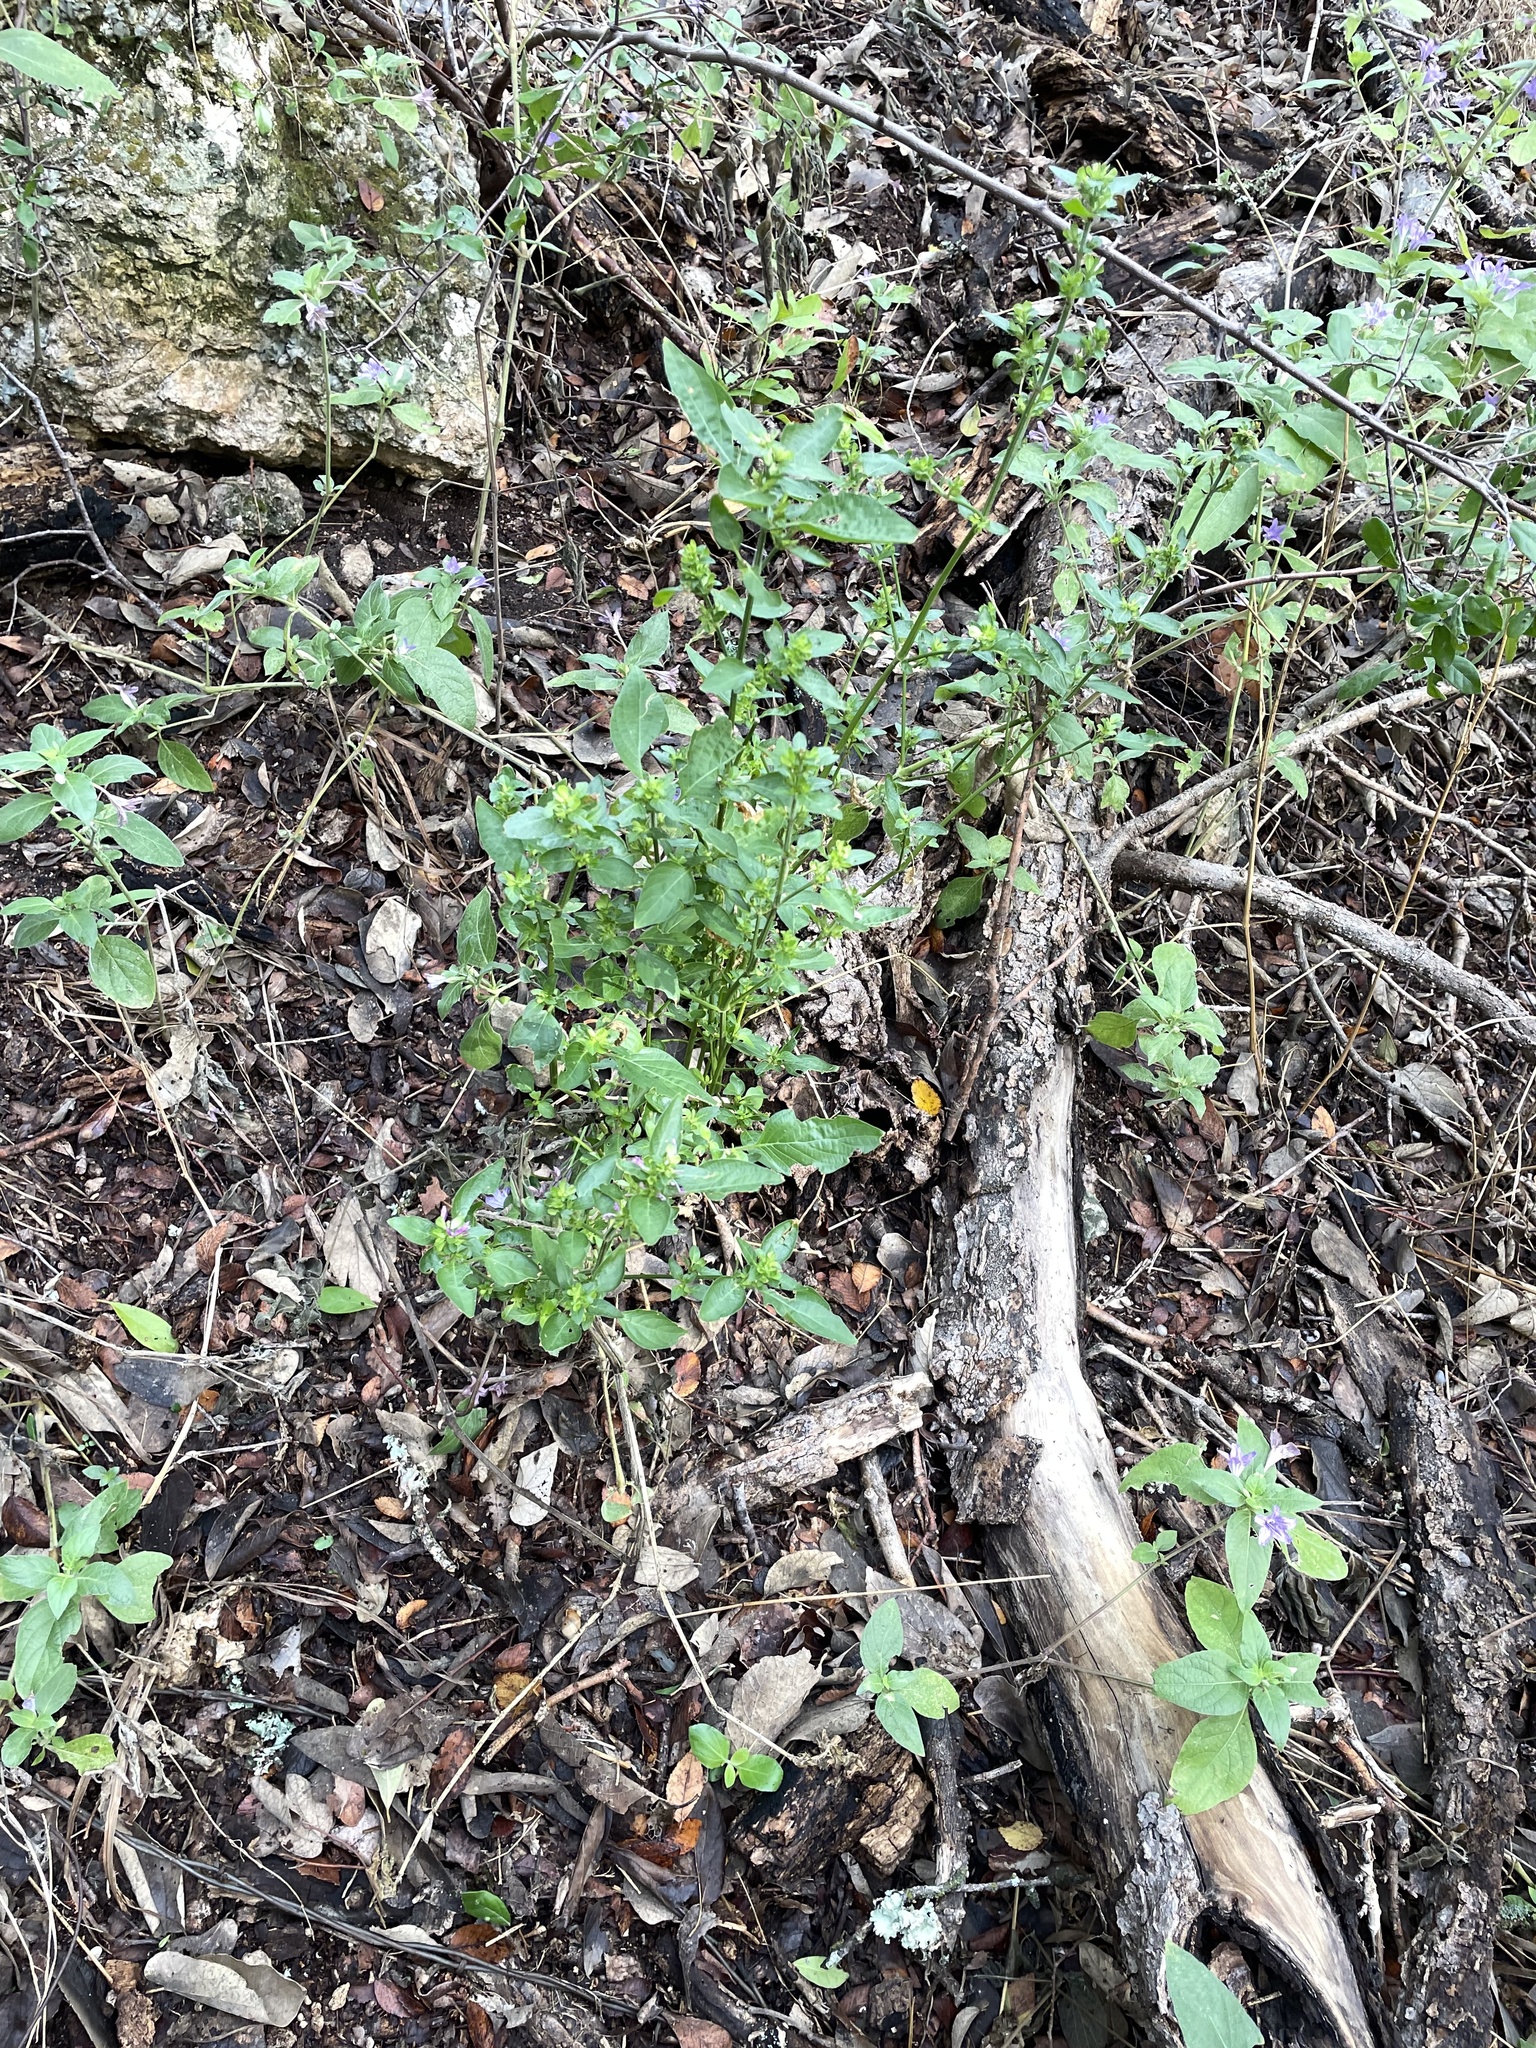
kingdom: Plantae
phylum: Tracheophyta
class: Magnoliopsida
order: Lamiales
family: Acanthaceae
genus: Dicliptera
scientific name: Dicliptera brachiata
